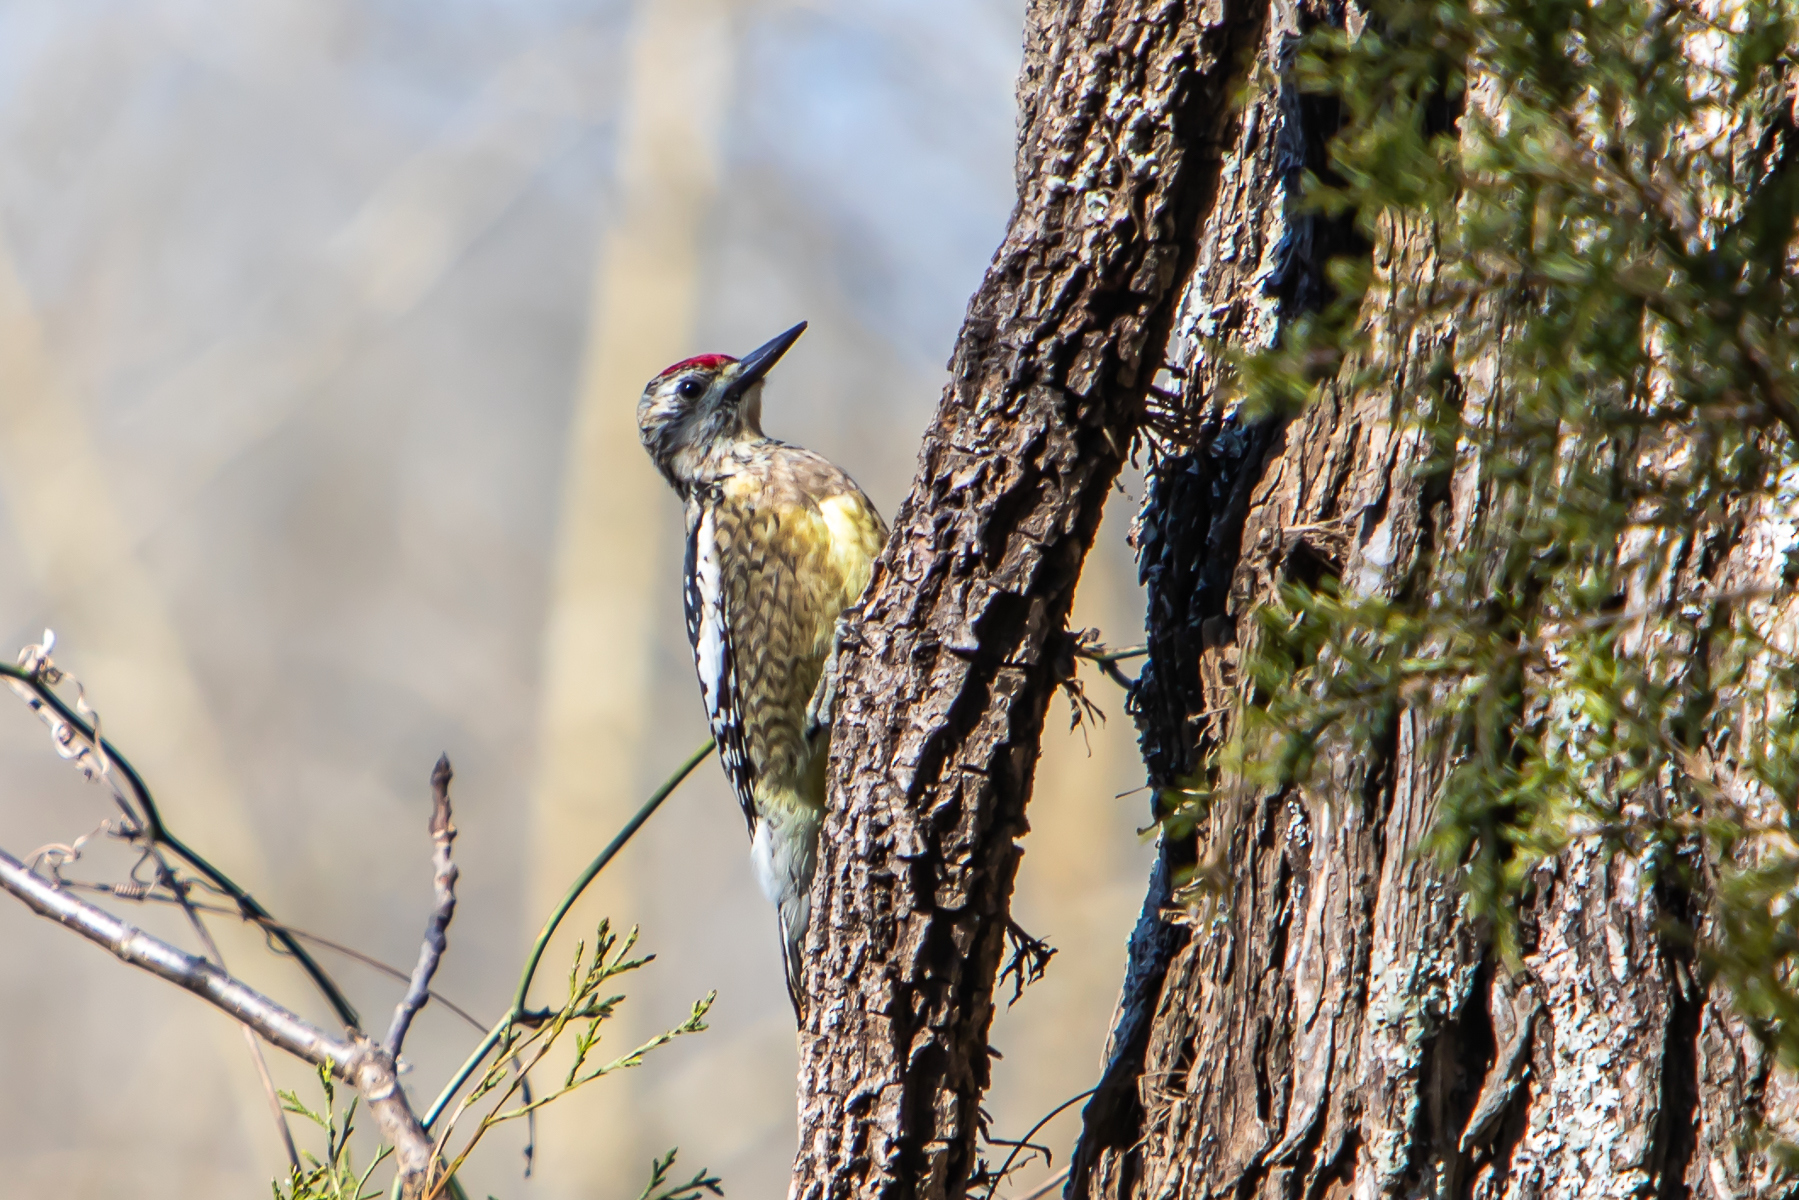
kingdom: Animalia
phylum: Chordata
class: Aves
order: Piciformes
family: Picidae
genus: Sphyrapicus
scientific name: Sphyrapicus varius
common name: Yellow-bellied sapsucker
